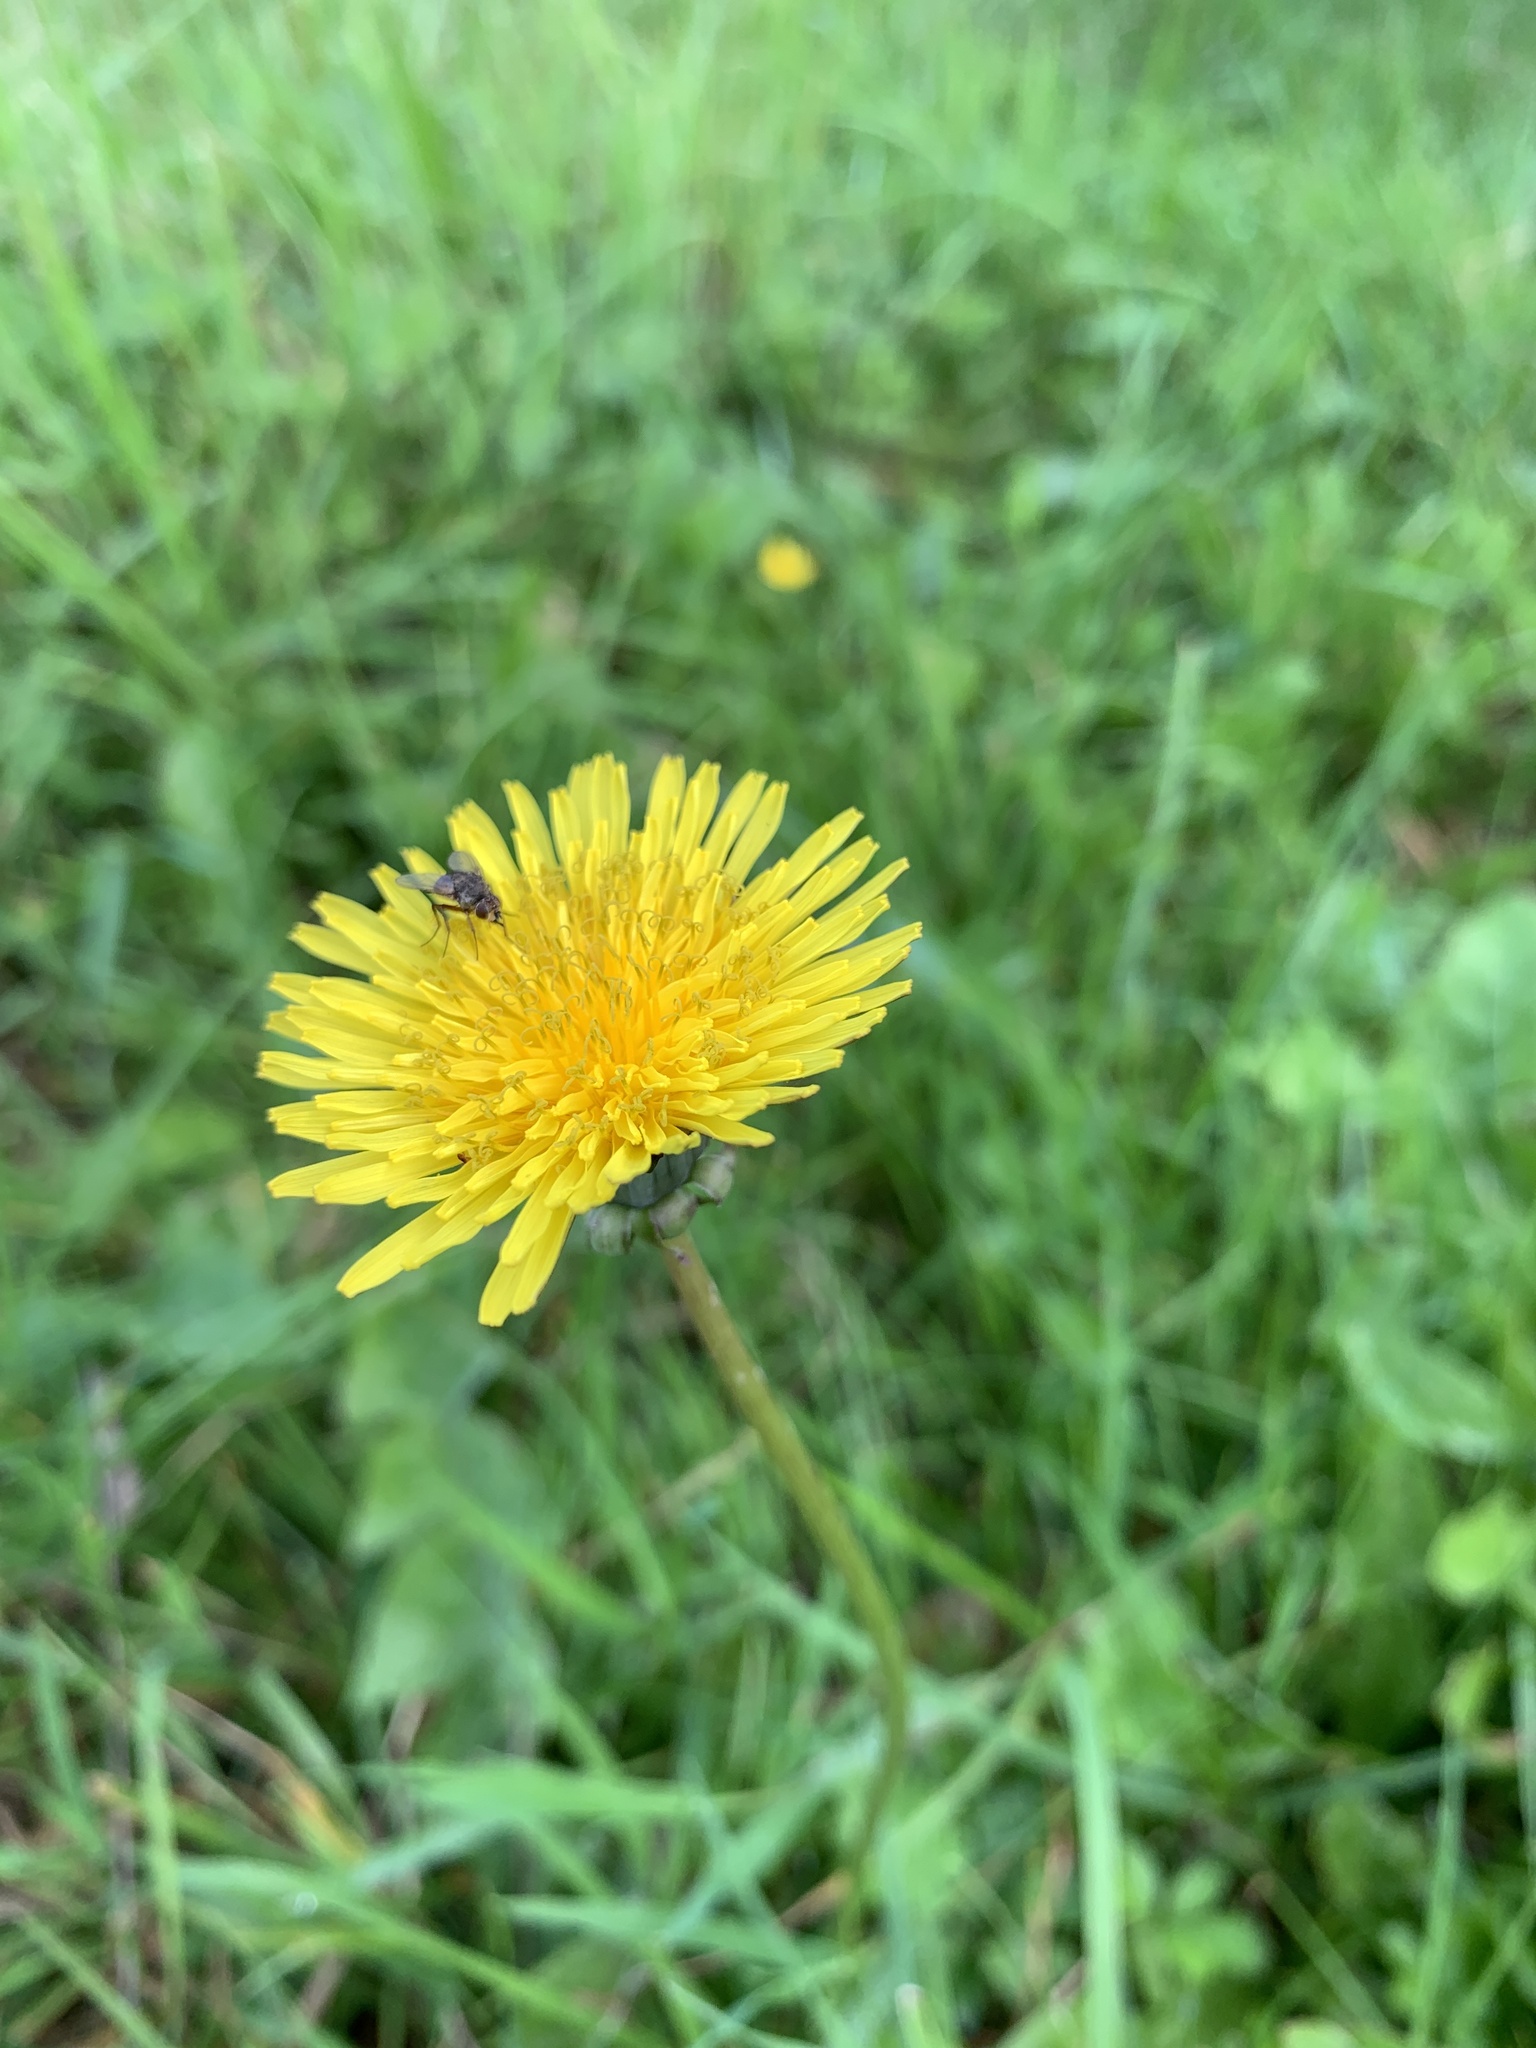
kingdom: Plantae
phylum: Tracheophyta
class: Magnoliopsida
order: Asterales
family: Asteraceae
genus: Taraxacum
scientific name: Taraxacum officinale
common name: Common dandelion
